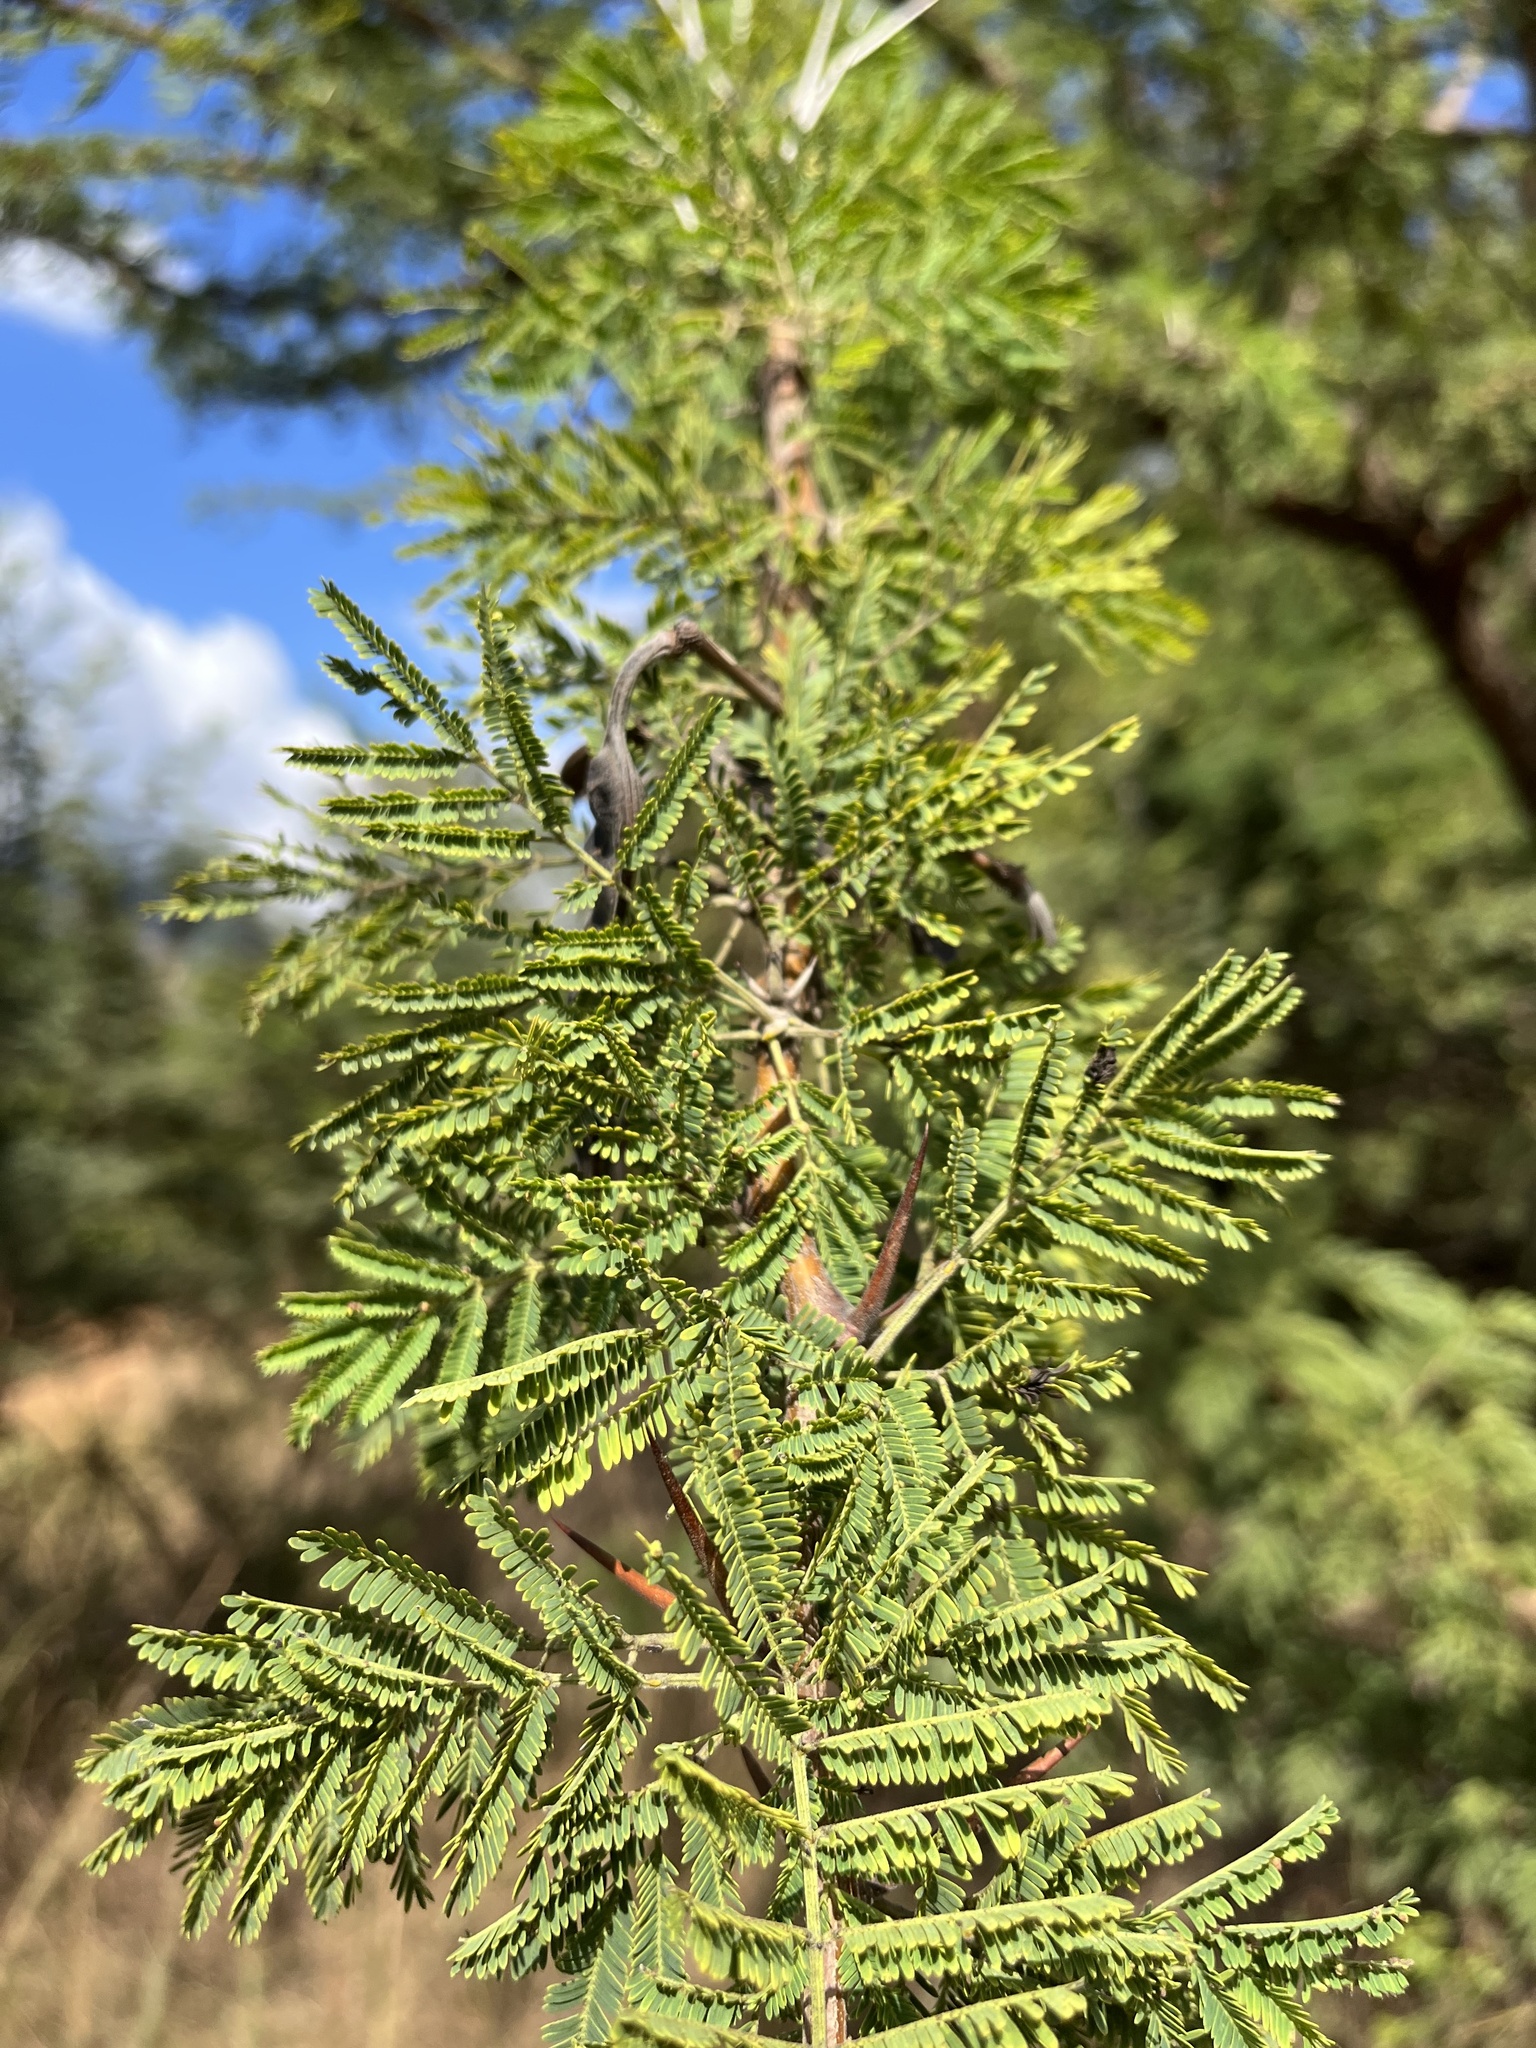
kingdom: Plantae
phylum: Tracheophyta
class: Magnoliopsida
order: Fabales
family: Fabaceae
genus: Vachellia
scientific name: Vachellia nilotica
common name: Arabic gumtree
